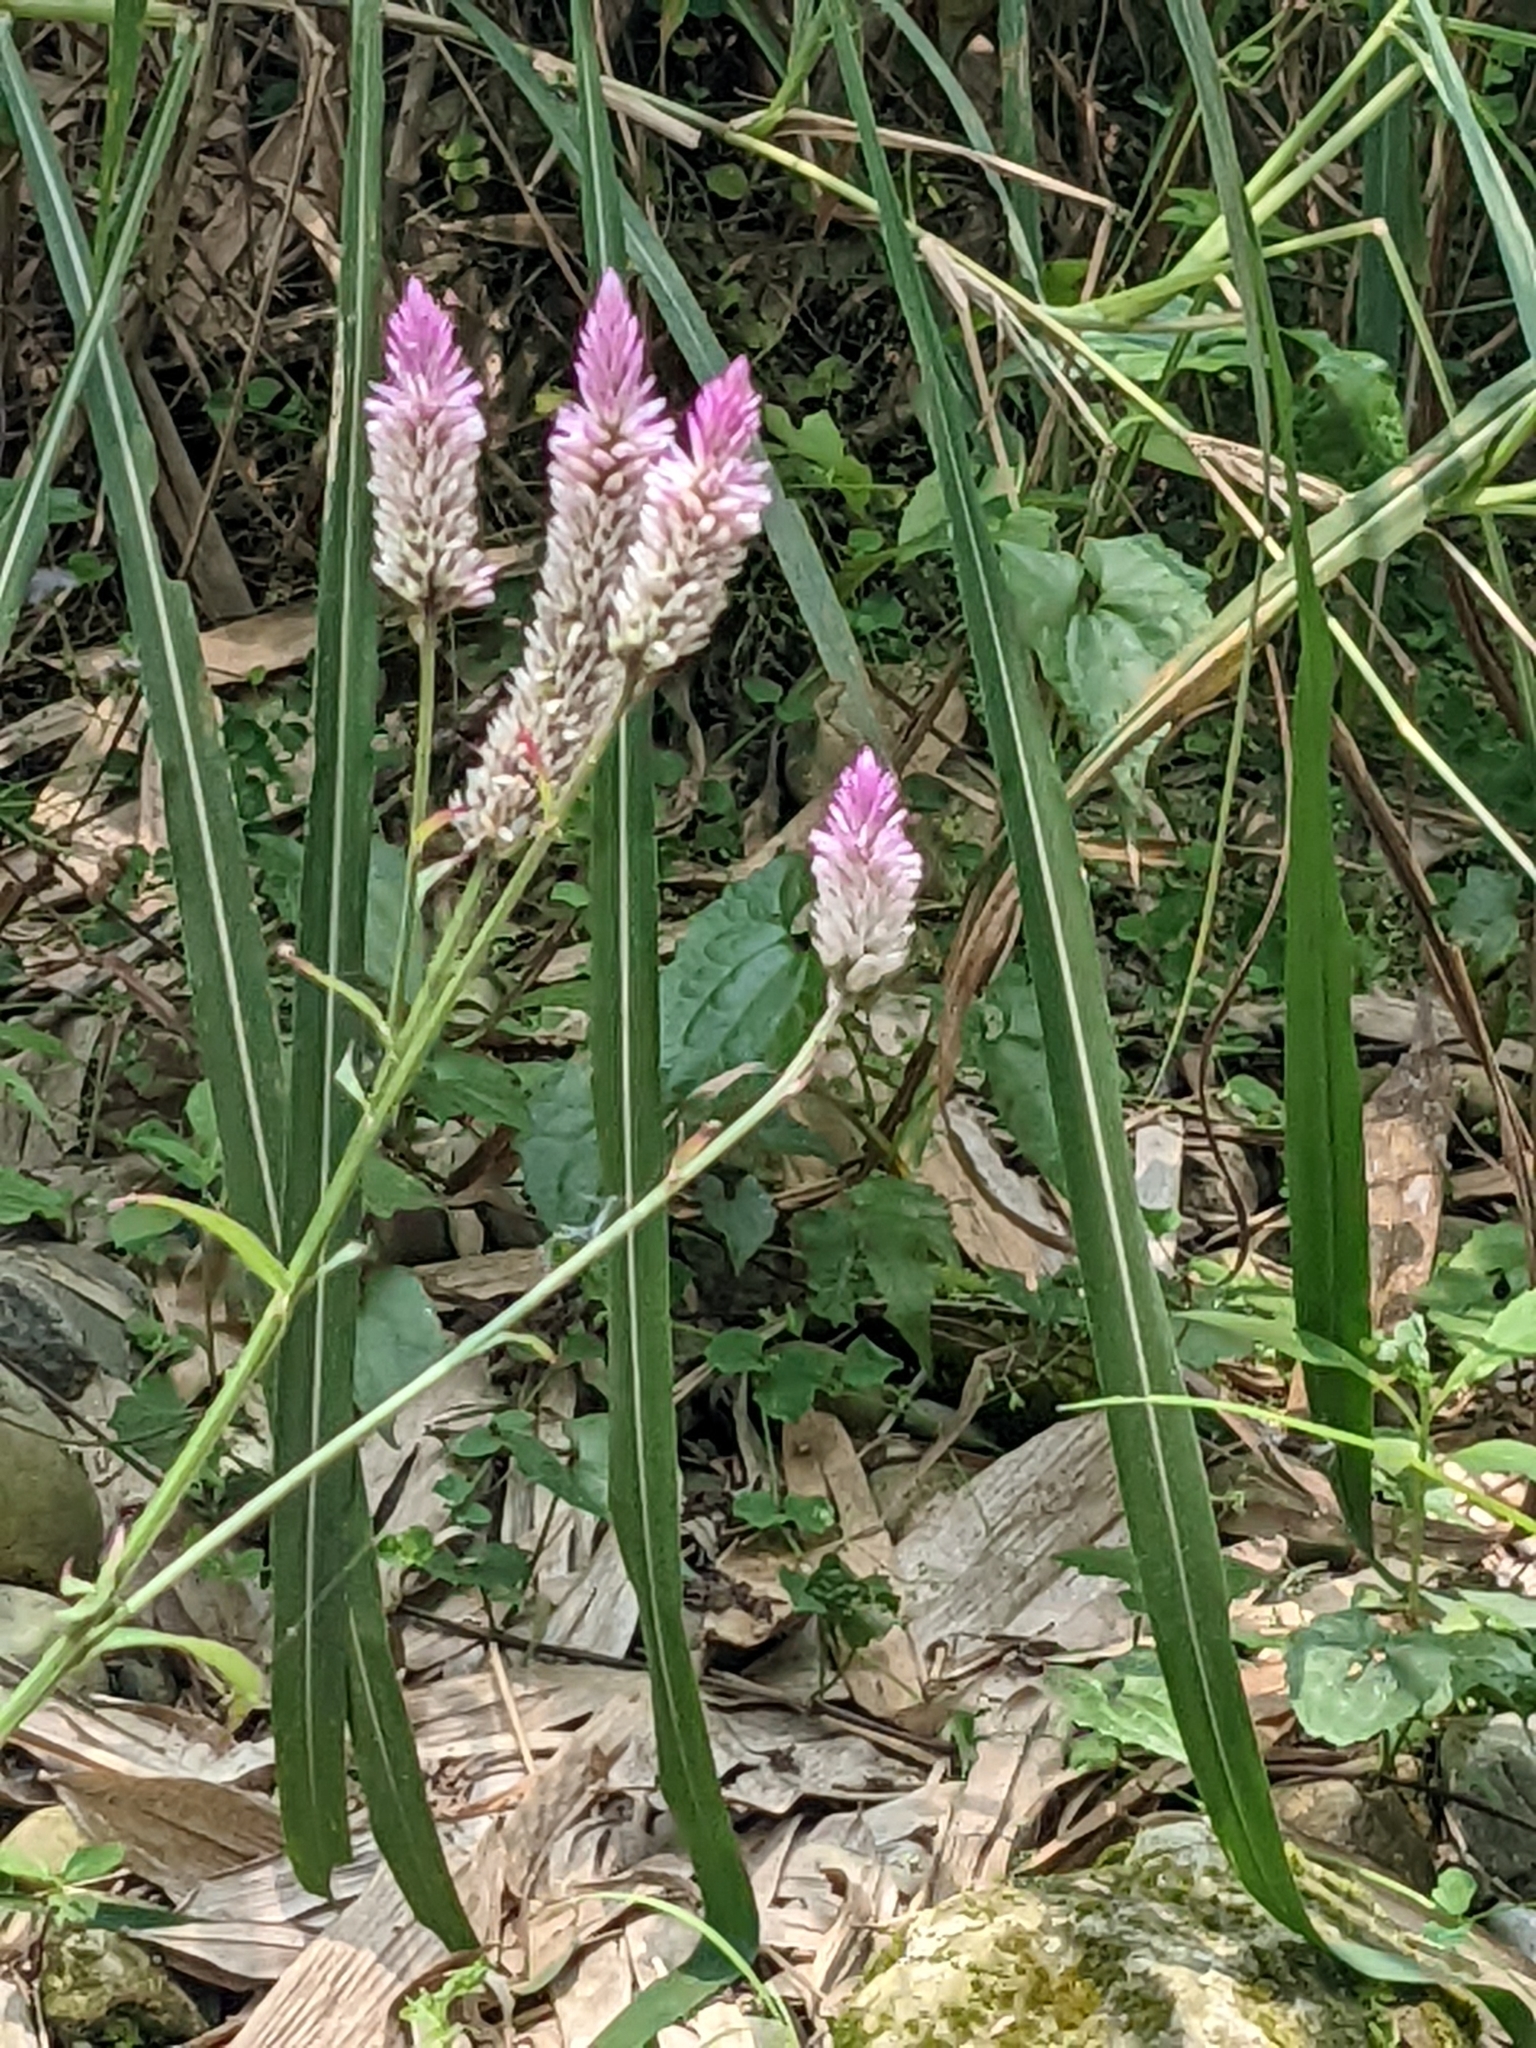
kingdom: Plantae
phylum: Tracheophyta
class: Magnoliopsida
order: Caryophyllales
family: Amaranthaceae
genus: Celosia
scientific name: Celosia argentea
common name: Feather cockscomb
